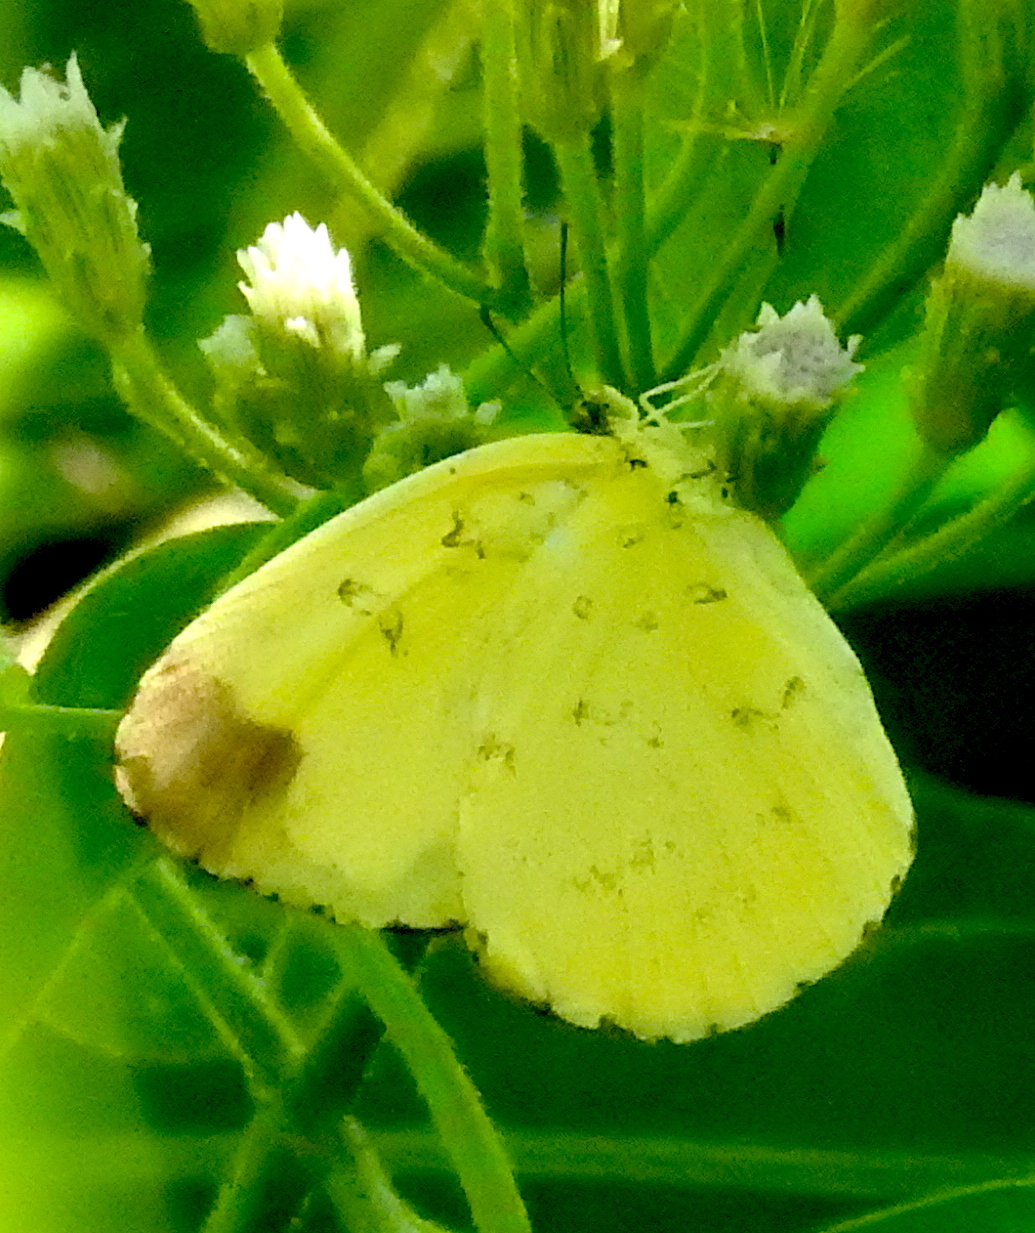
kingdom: Animalia
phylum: Arthropoda
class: Insecta
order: Lepidoptera
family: Pieridae
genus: Eurema
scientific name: Eurema blanda
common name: Three-spot grass yellow
